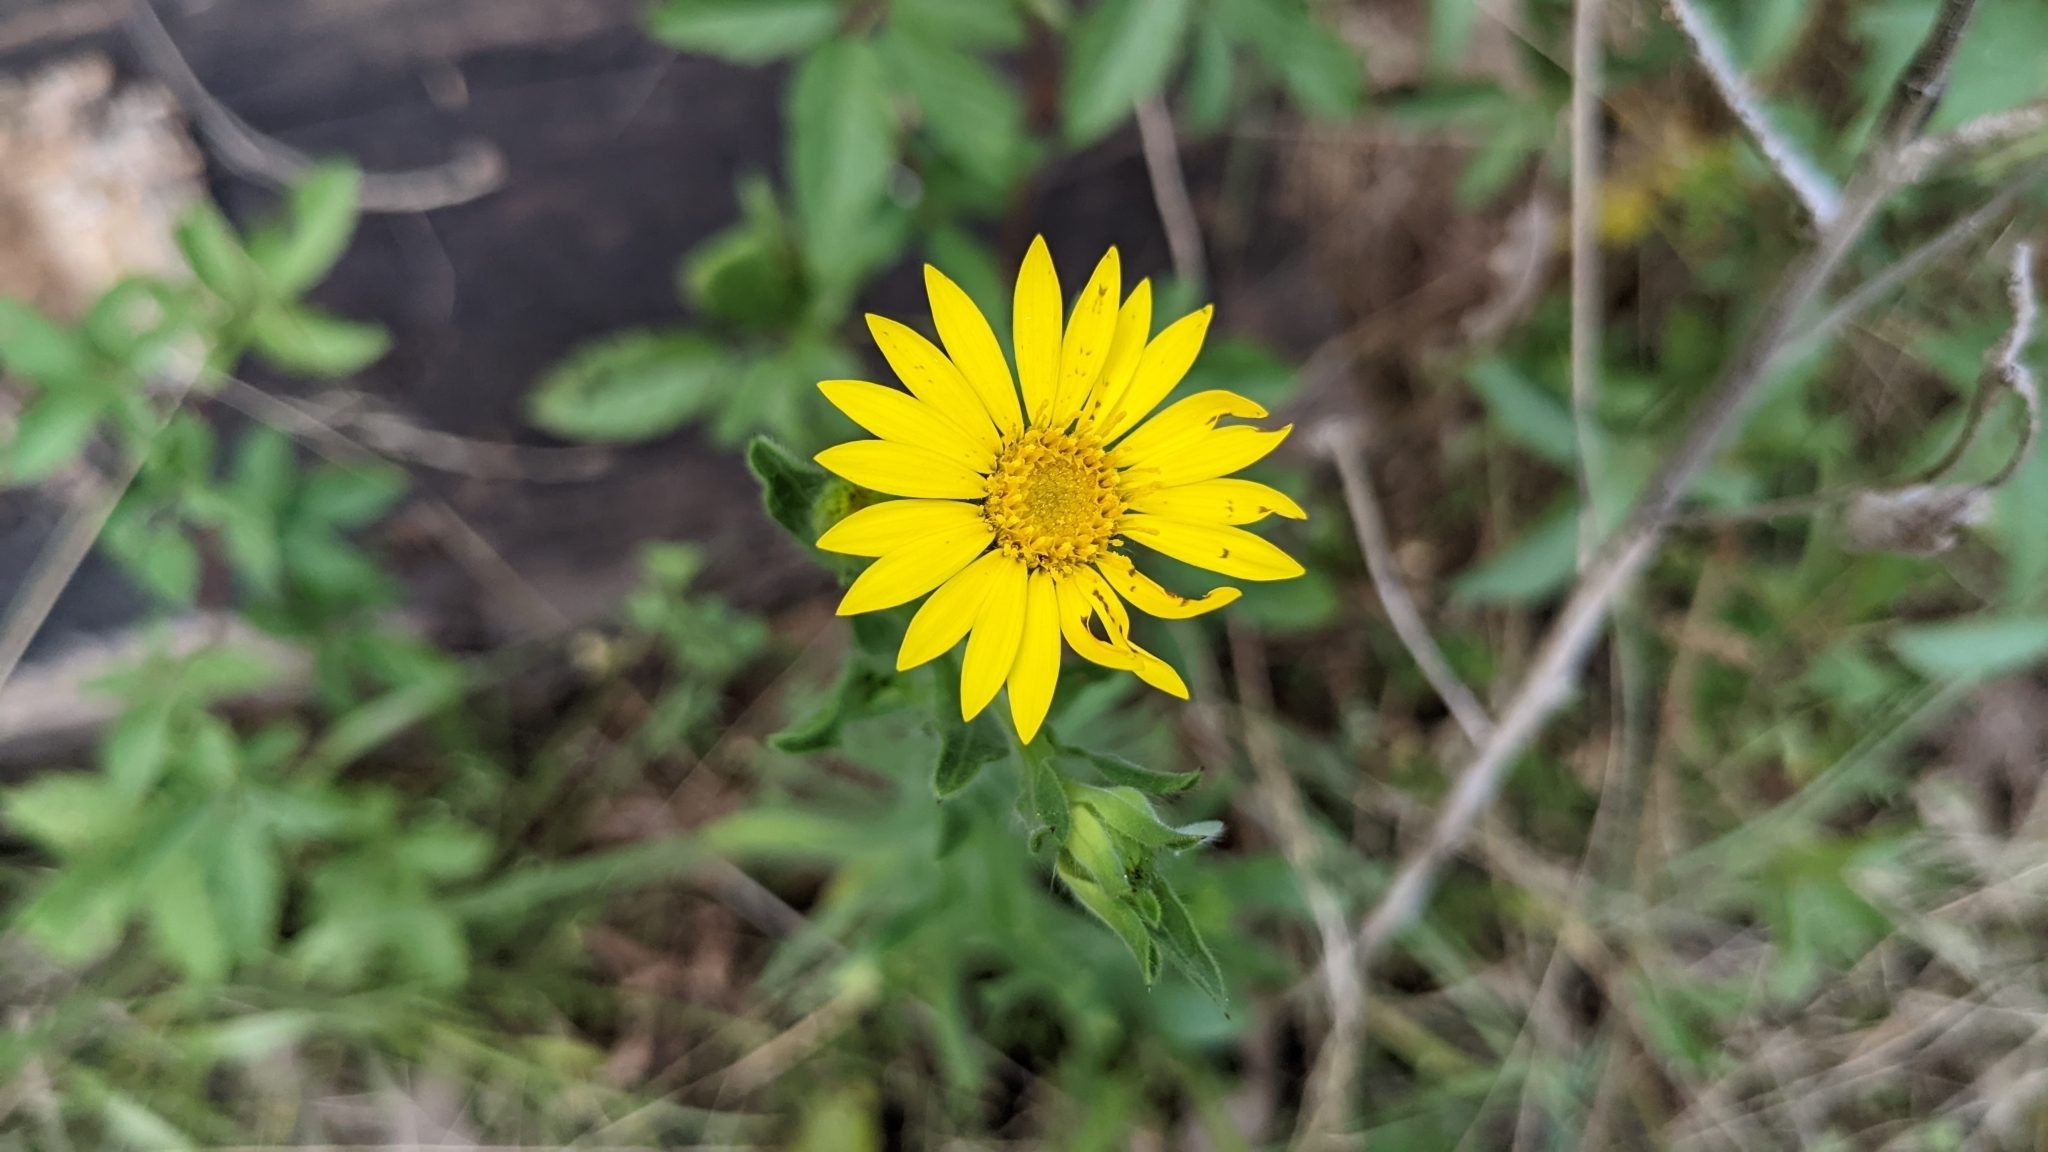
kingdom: Plantae
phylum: Tracheophyta
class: Magnoliopsida
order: Asterales
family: Asteraceae
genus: Bradburia
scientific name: Bradburia pilosa
